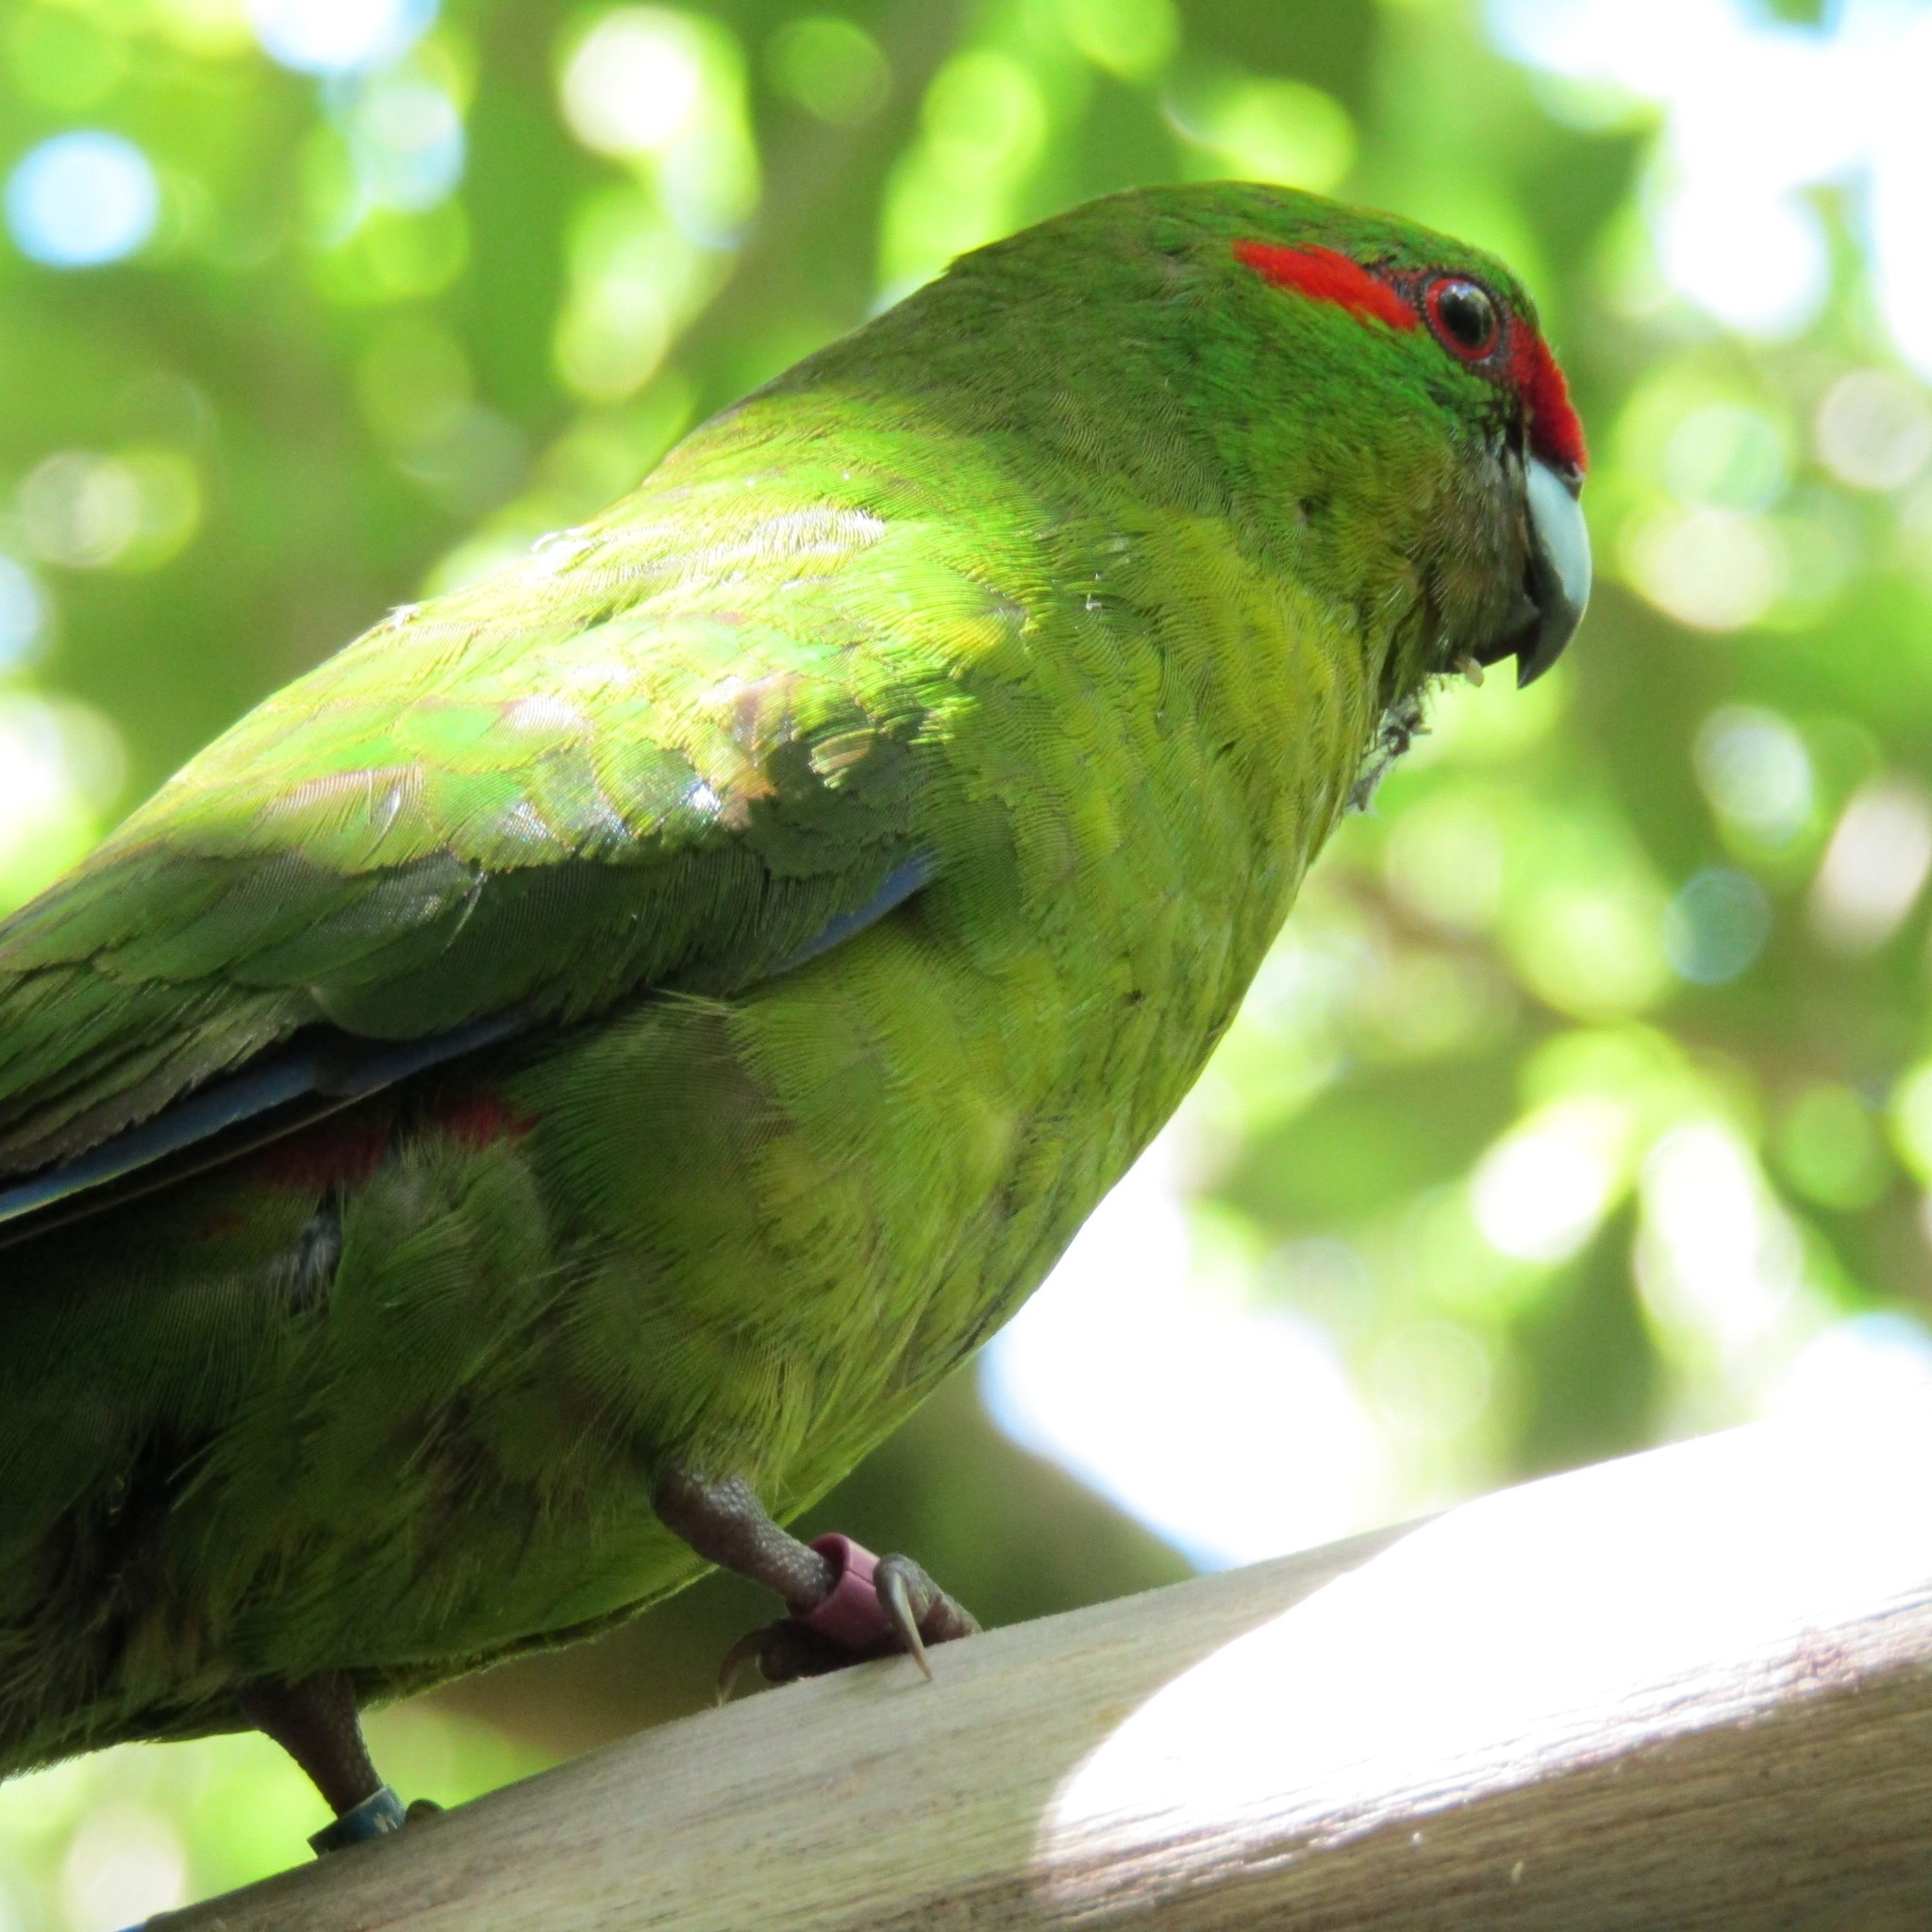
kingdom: Animalia
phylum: Chordata
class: Aves
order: Psittaciformes
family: Psittacidae
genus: Cyanoramphus
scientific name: Cyanoramphus novaezelandiae
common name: Red-fronted parakeet
